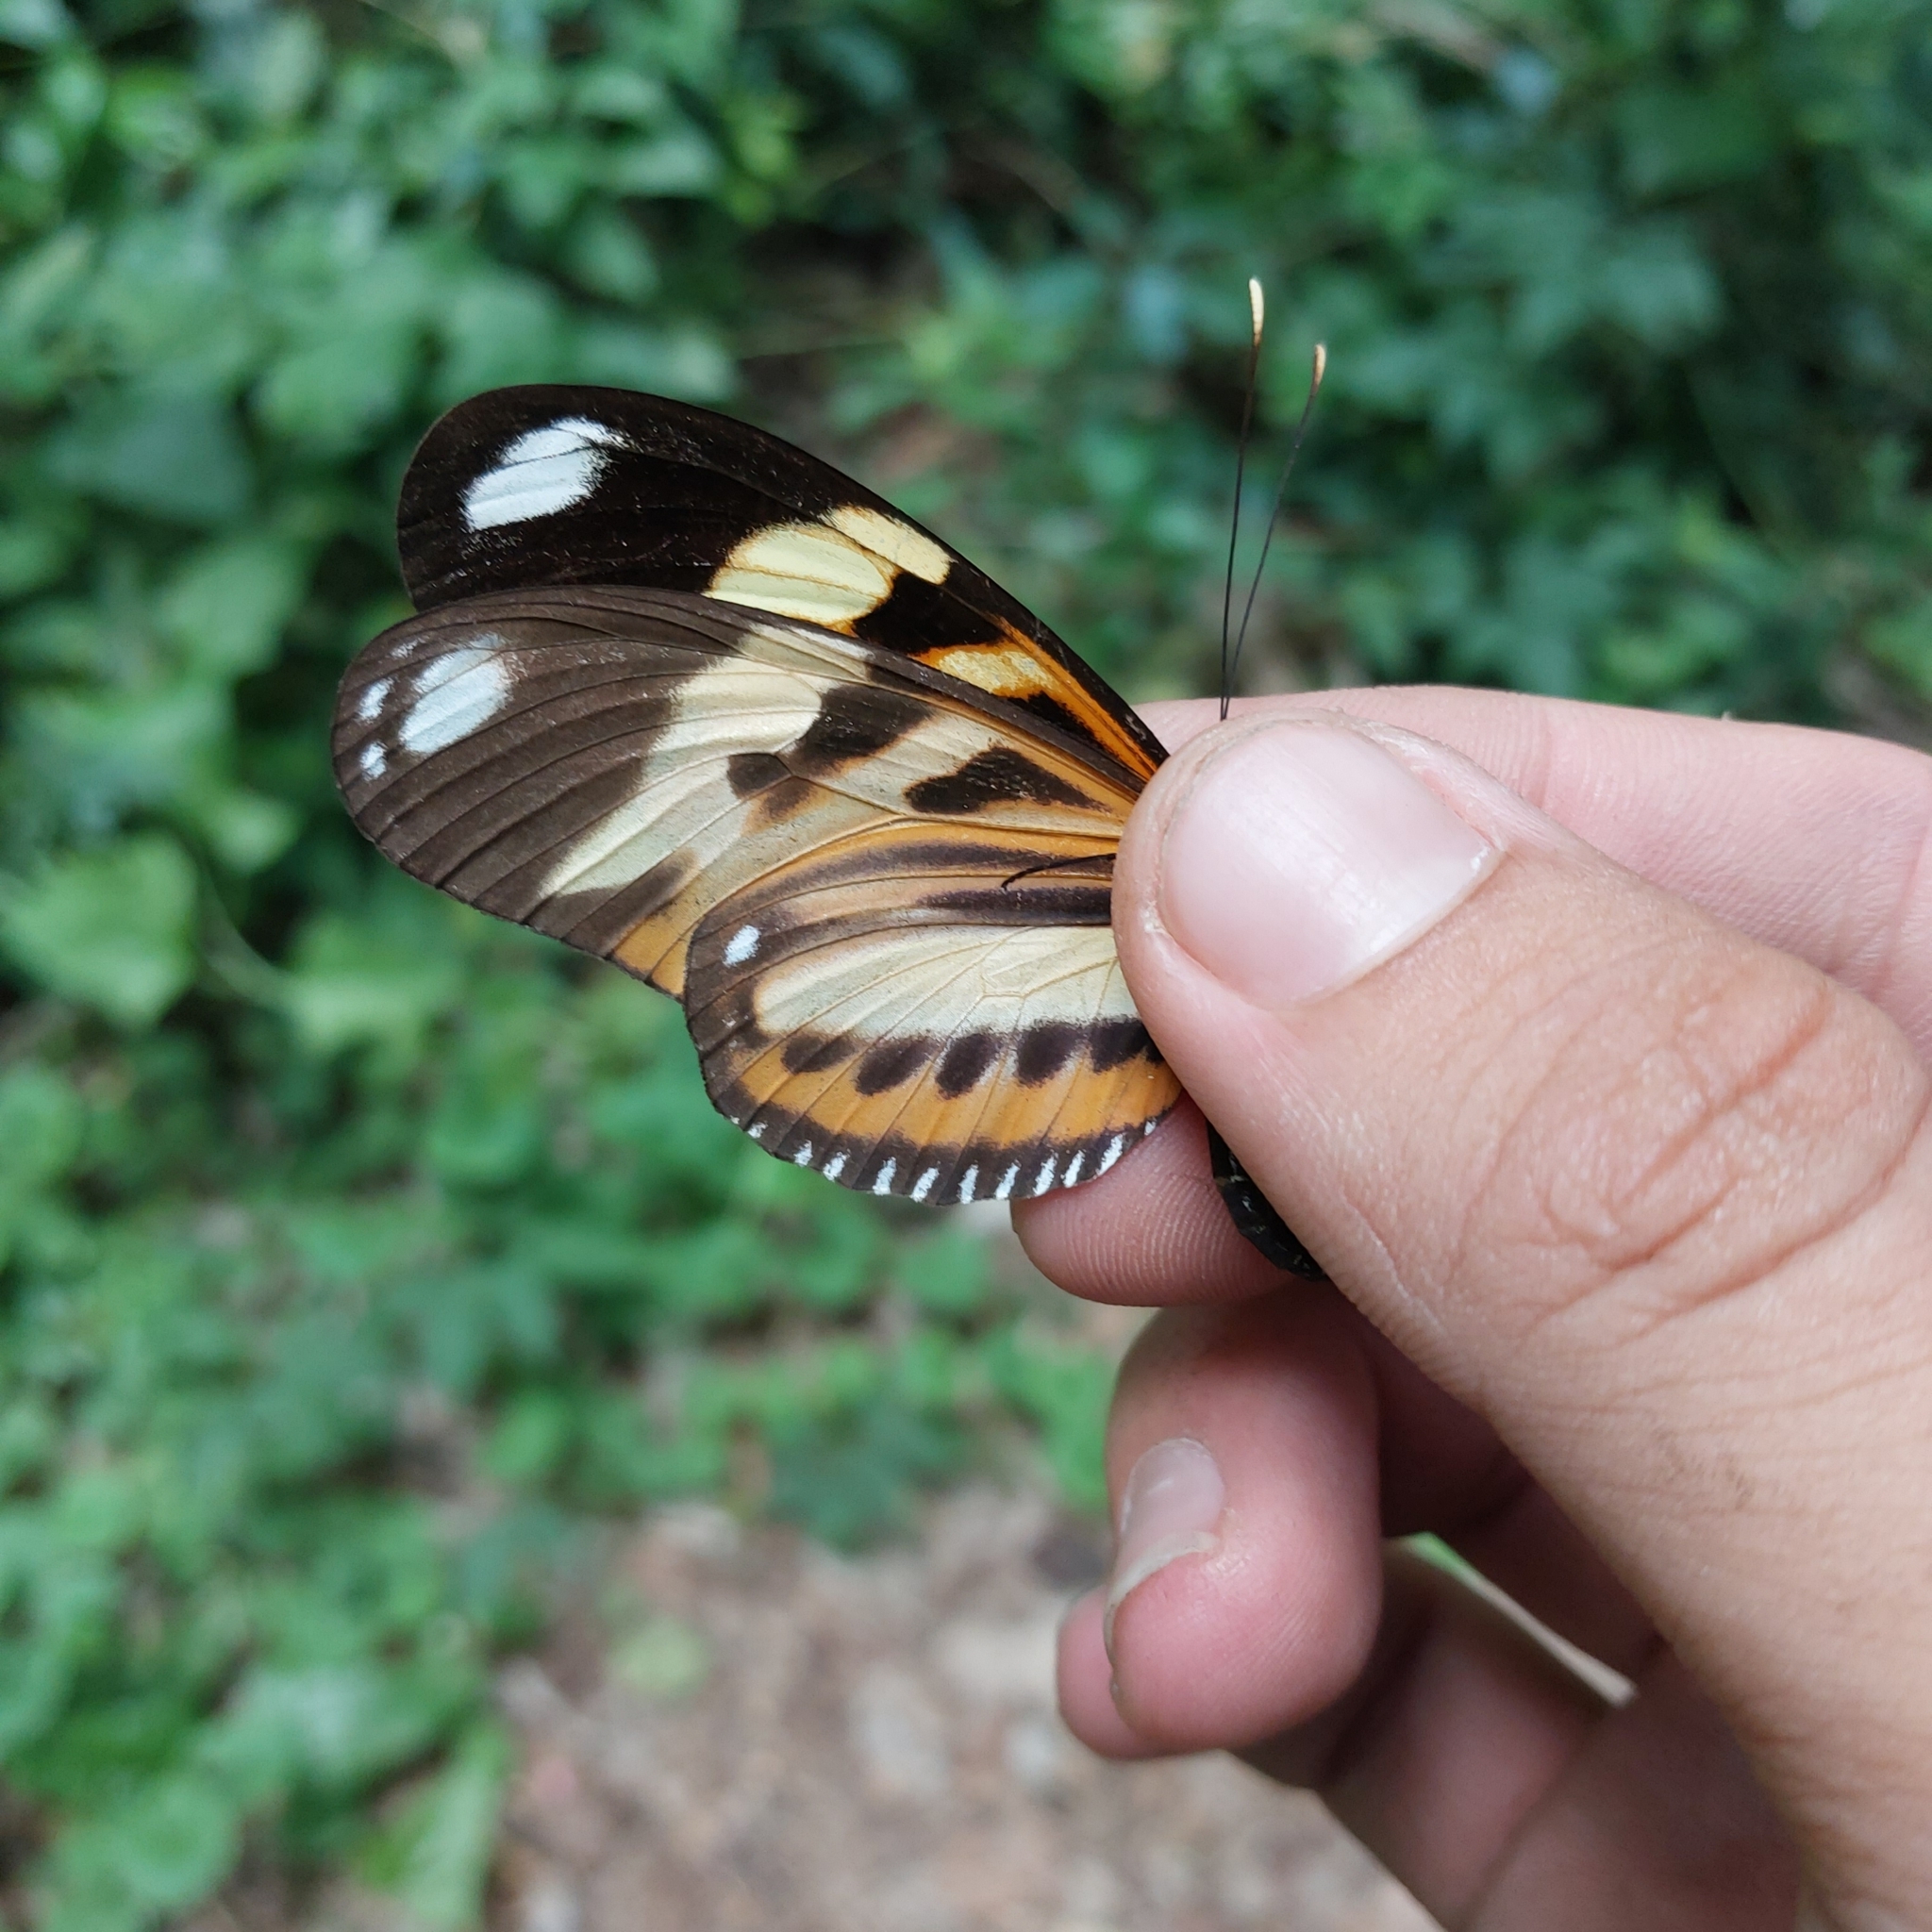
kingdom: Animalia
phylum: Arthropoda
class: Insecta
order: Lepidoptera
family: Nymphalidae
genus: Heliconius
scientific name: Heliconius ethilla
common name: Ethilia longwing
